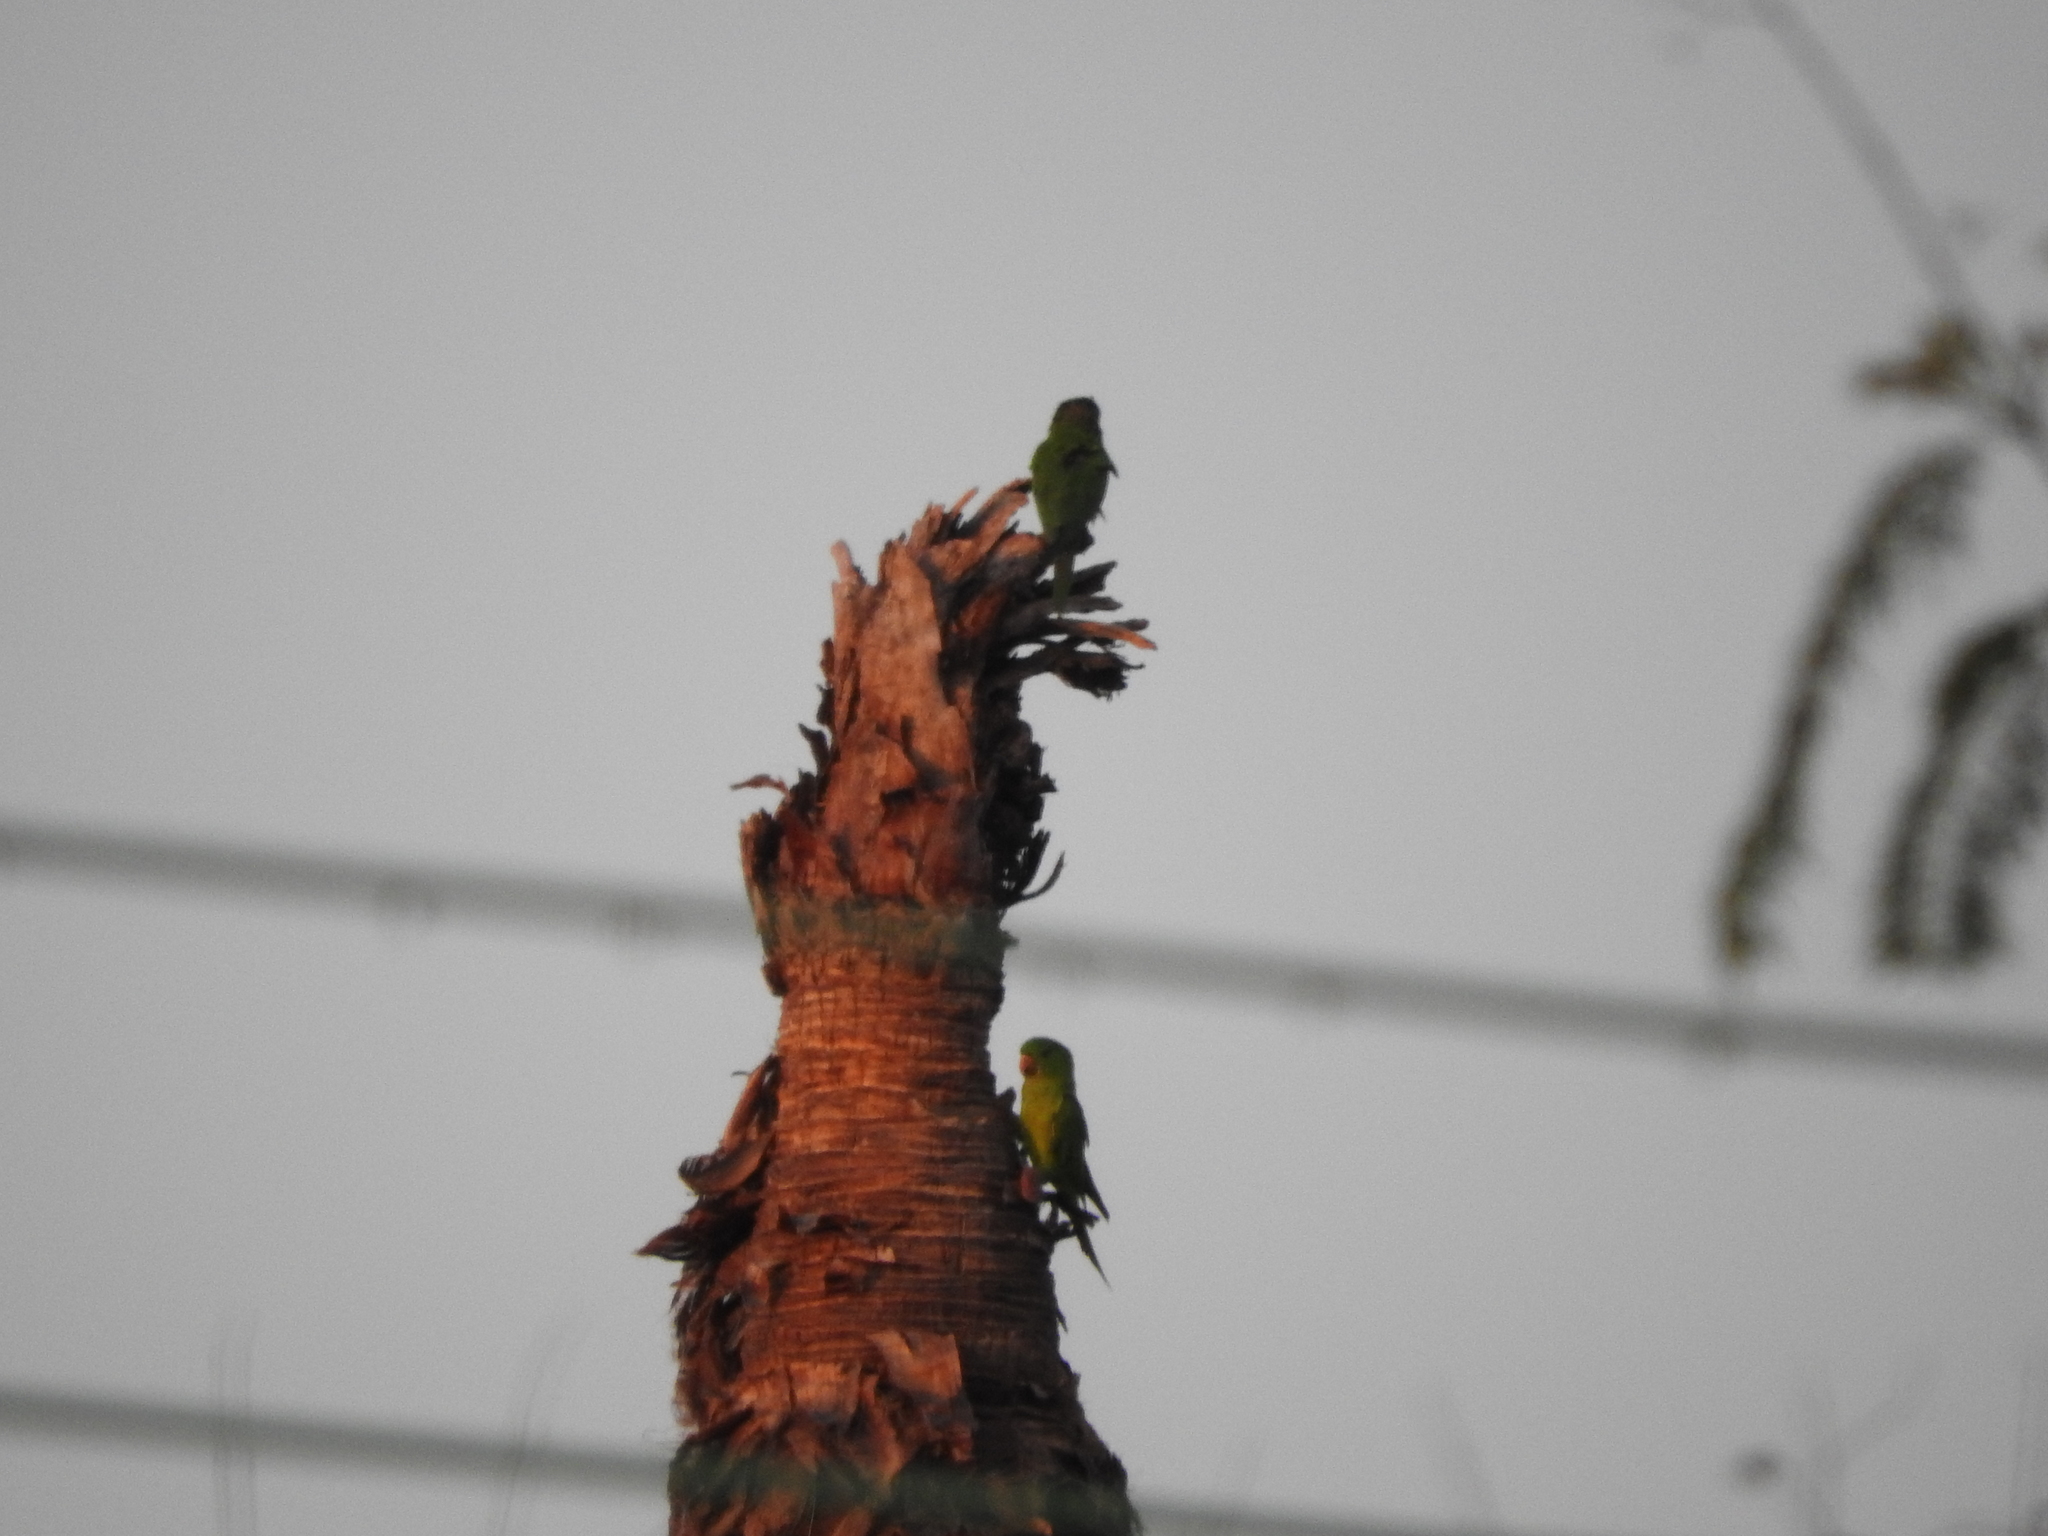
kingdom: Animalia
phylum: Chordata
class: Aves
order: Psittaciformes
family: Psittacidae
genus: Aratinga
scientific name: Aratinga holochlora
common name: Green parakeet
